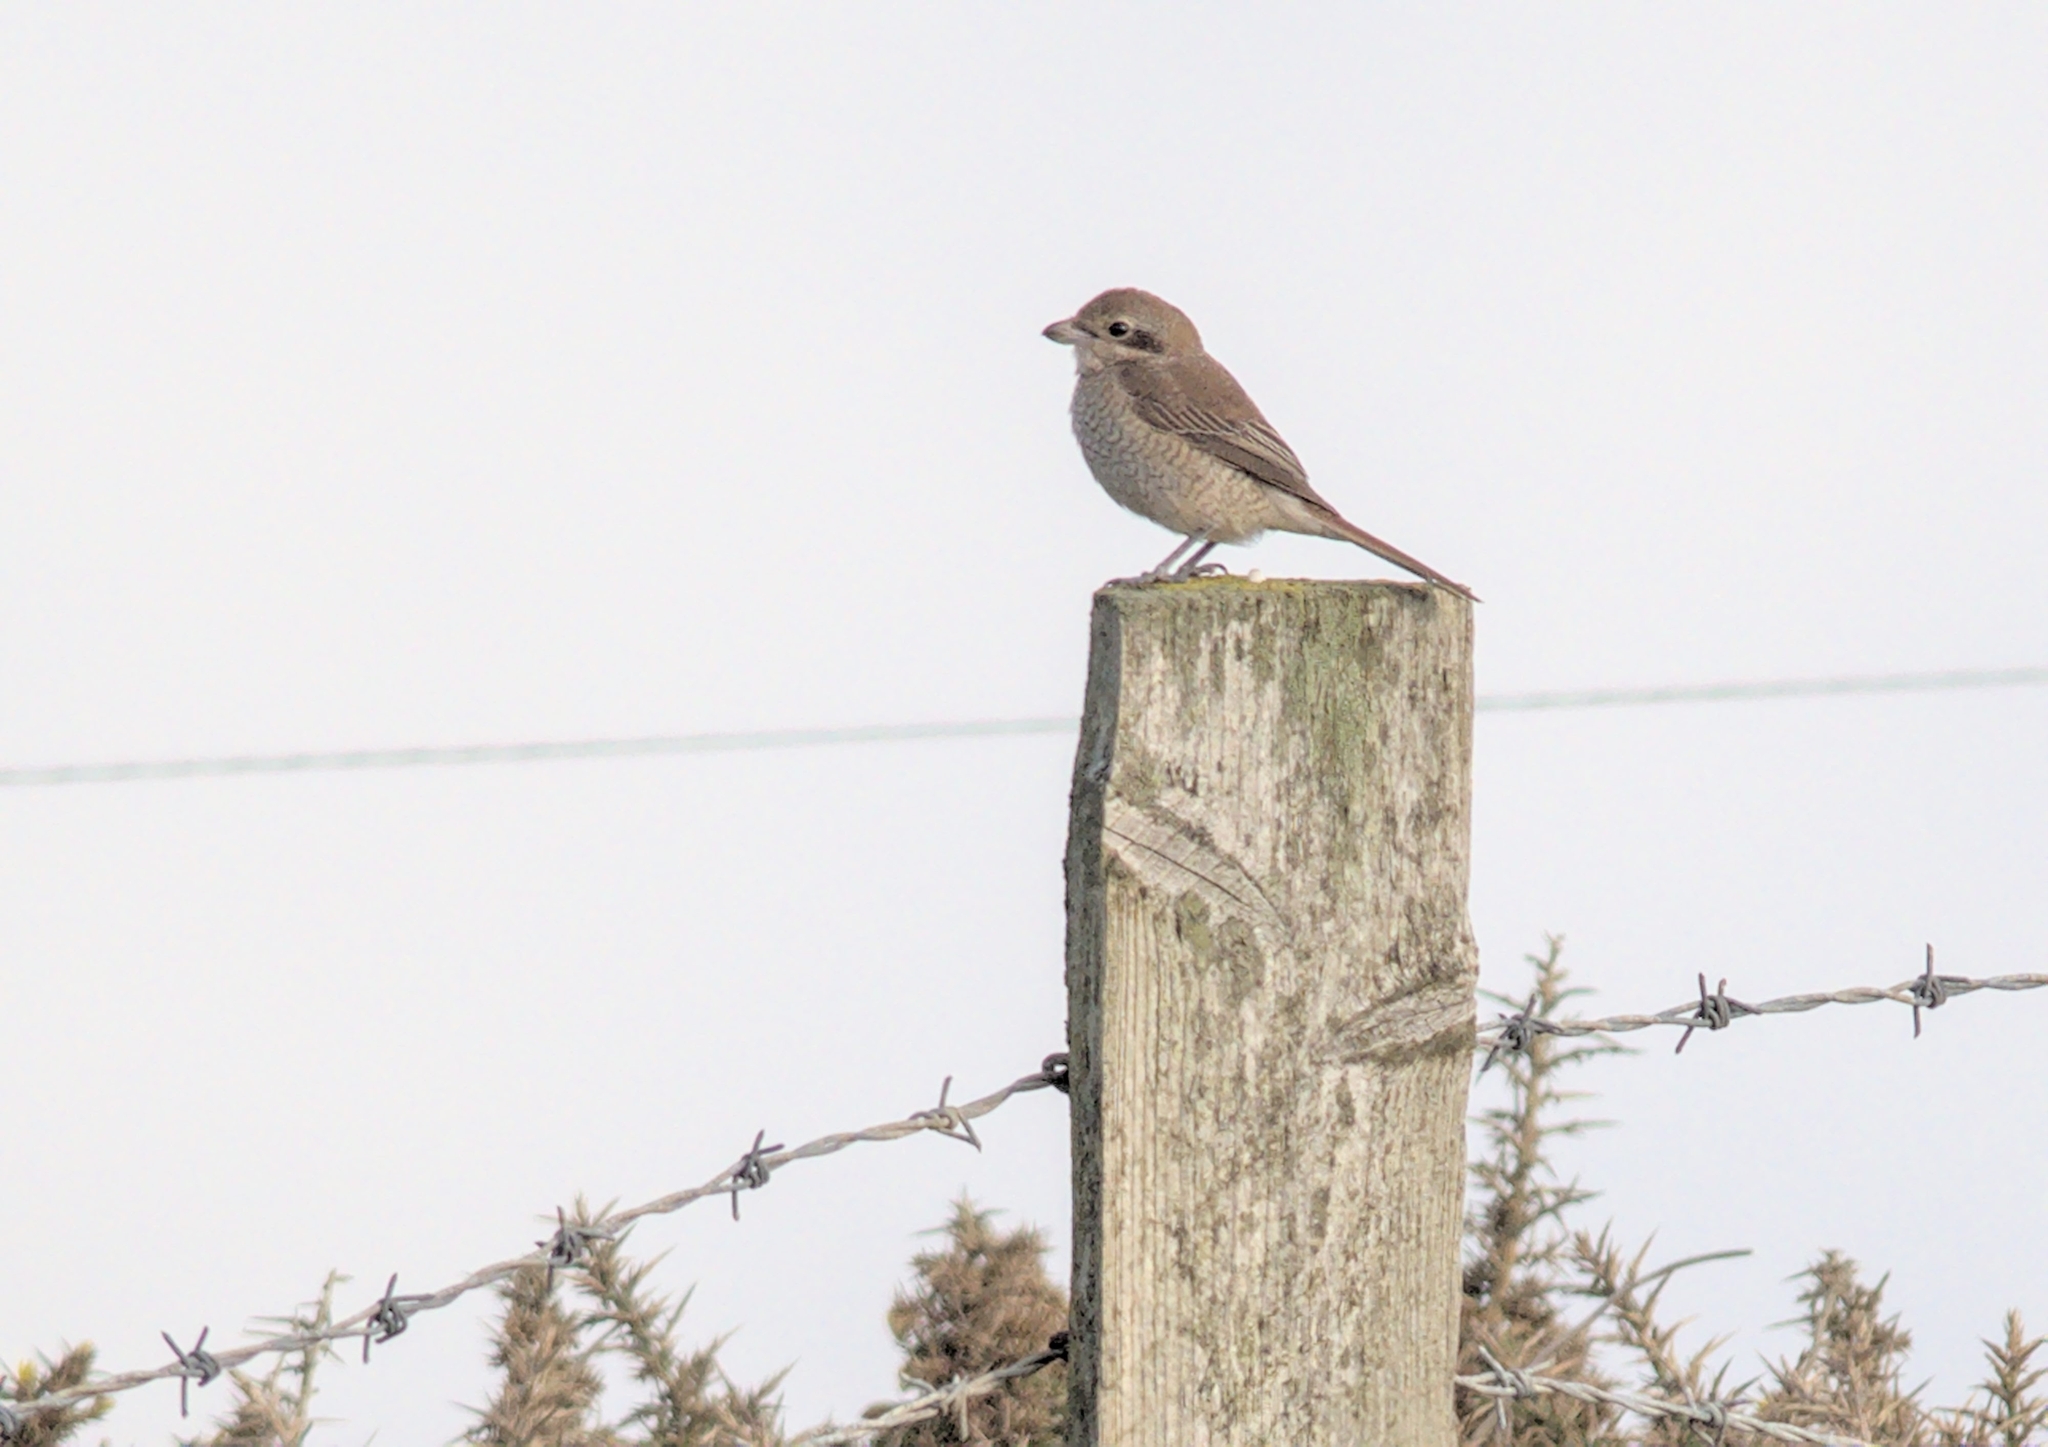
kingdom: Animalia
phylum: Chordata
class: Aves
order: Passeriformes
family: Laniidae
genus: Lanius
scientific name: Lanius collurio
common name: Red-backed shrike
